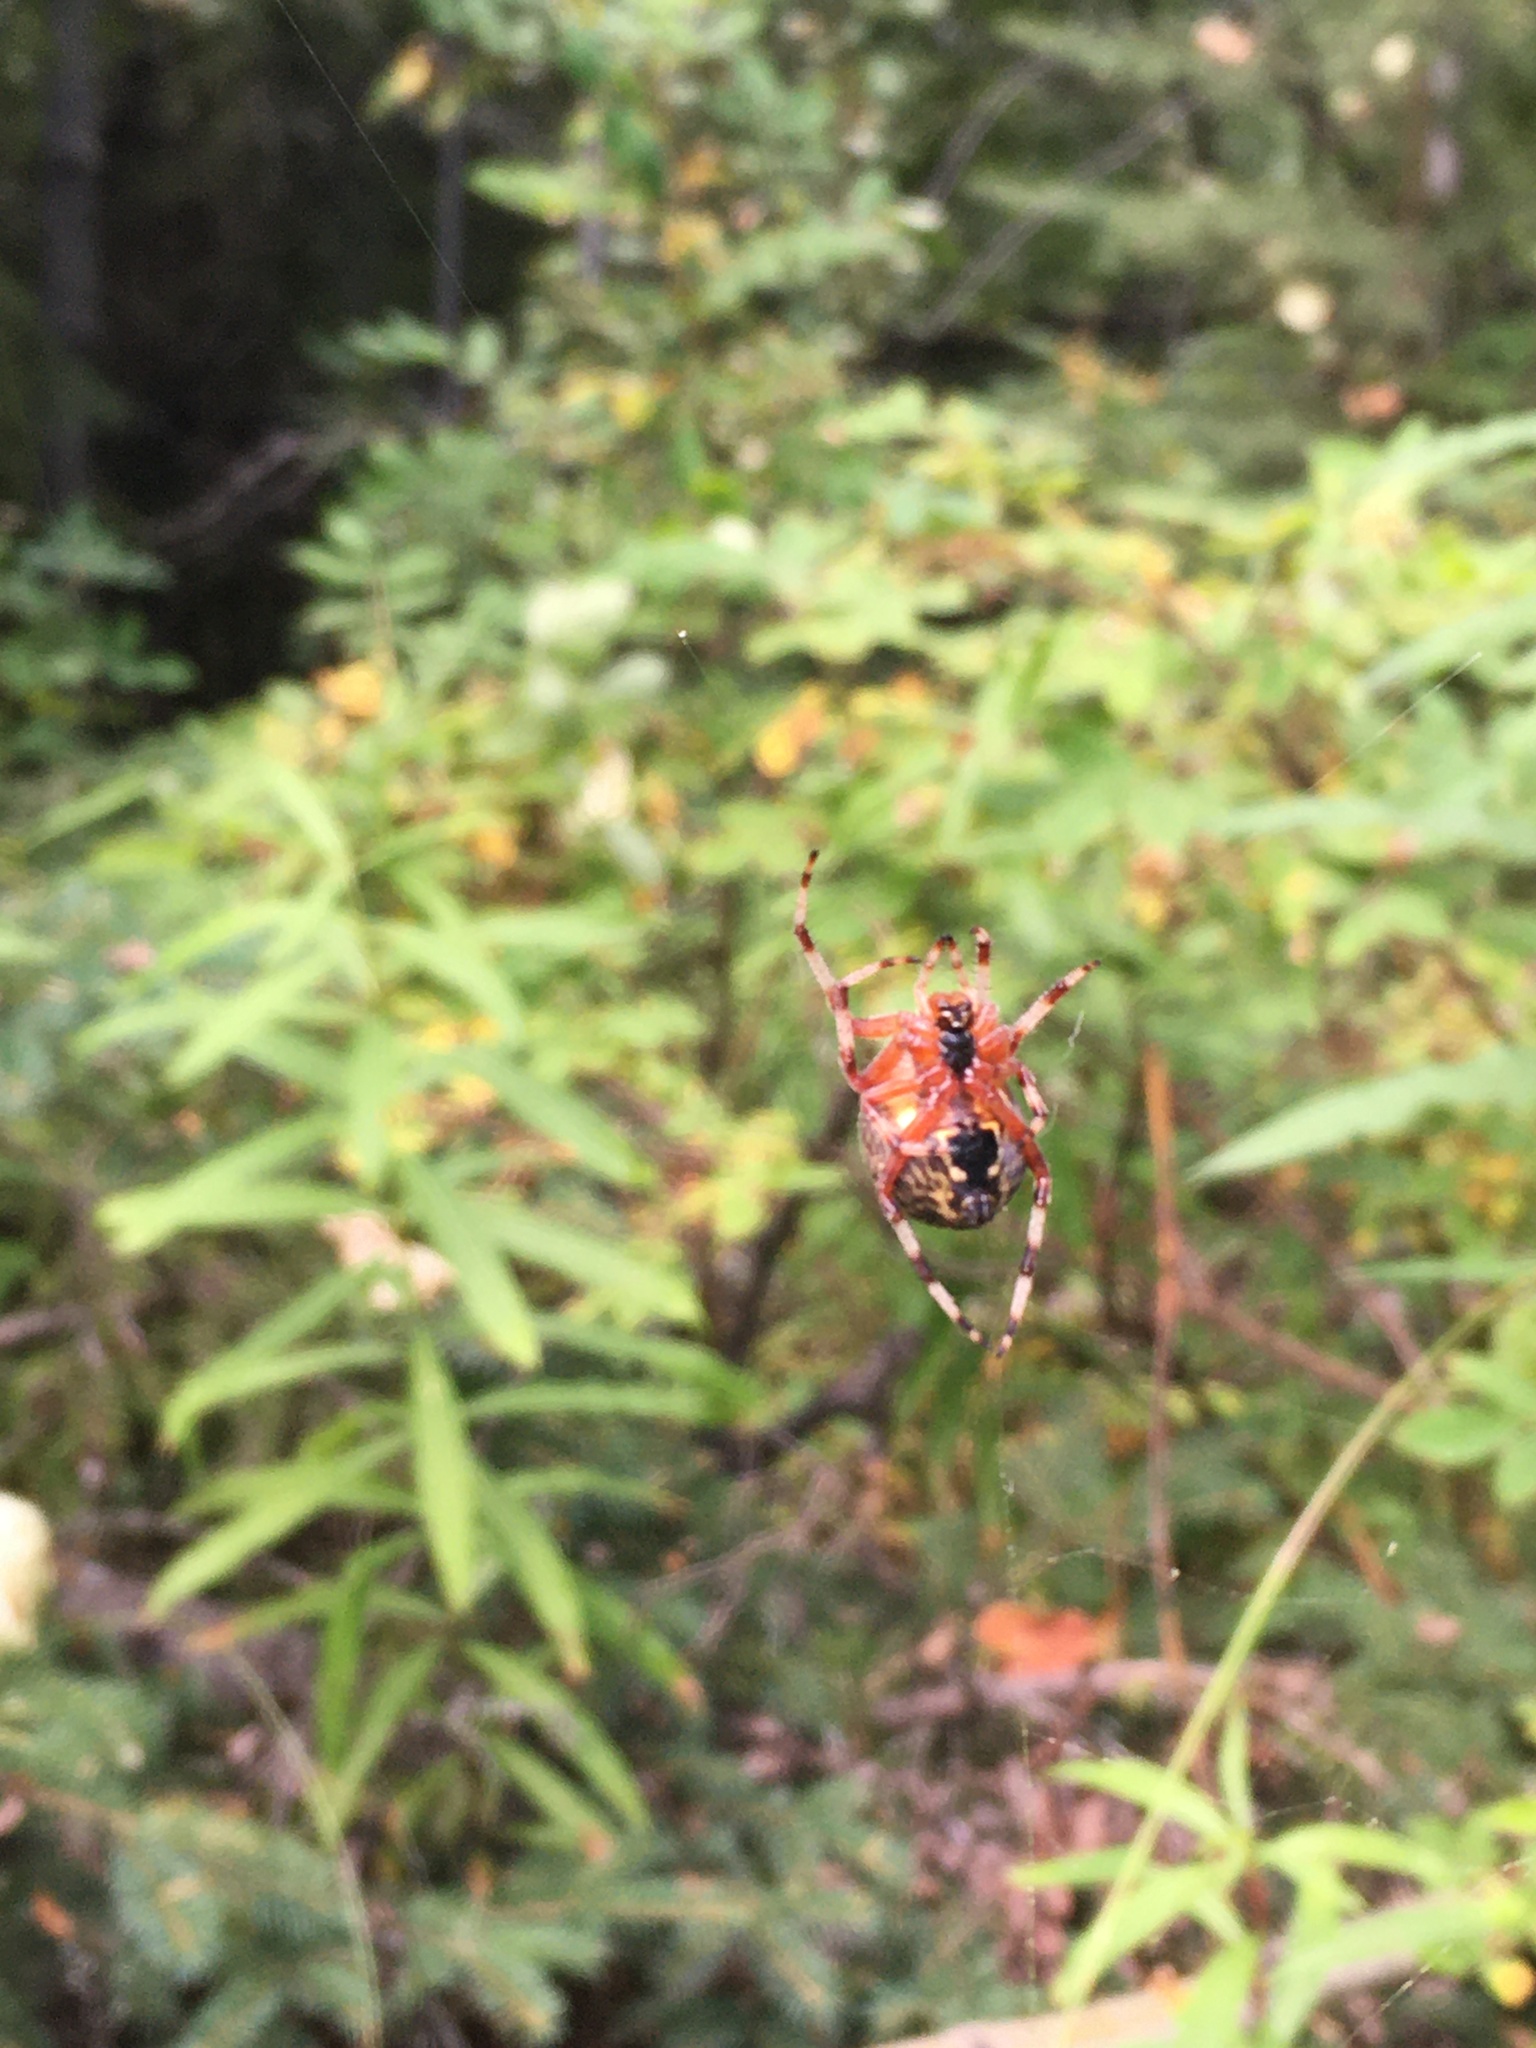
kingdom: Animalia
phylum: Arthropoda
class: Arachnida
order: Araneae
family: Araneidae
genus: Araneus
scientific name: Araneus marmoreus
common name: Marbled orbweaver
